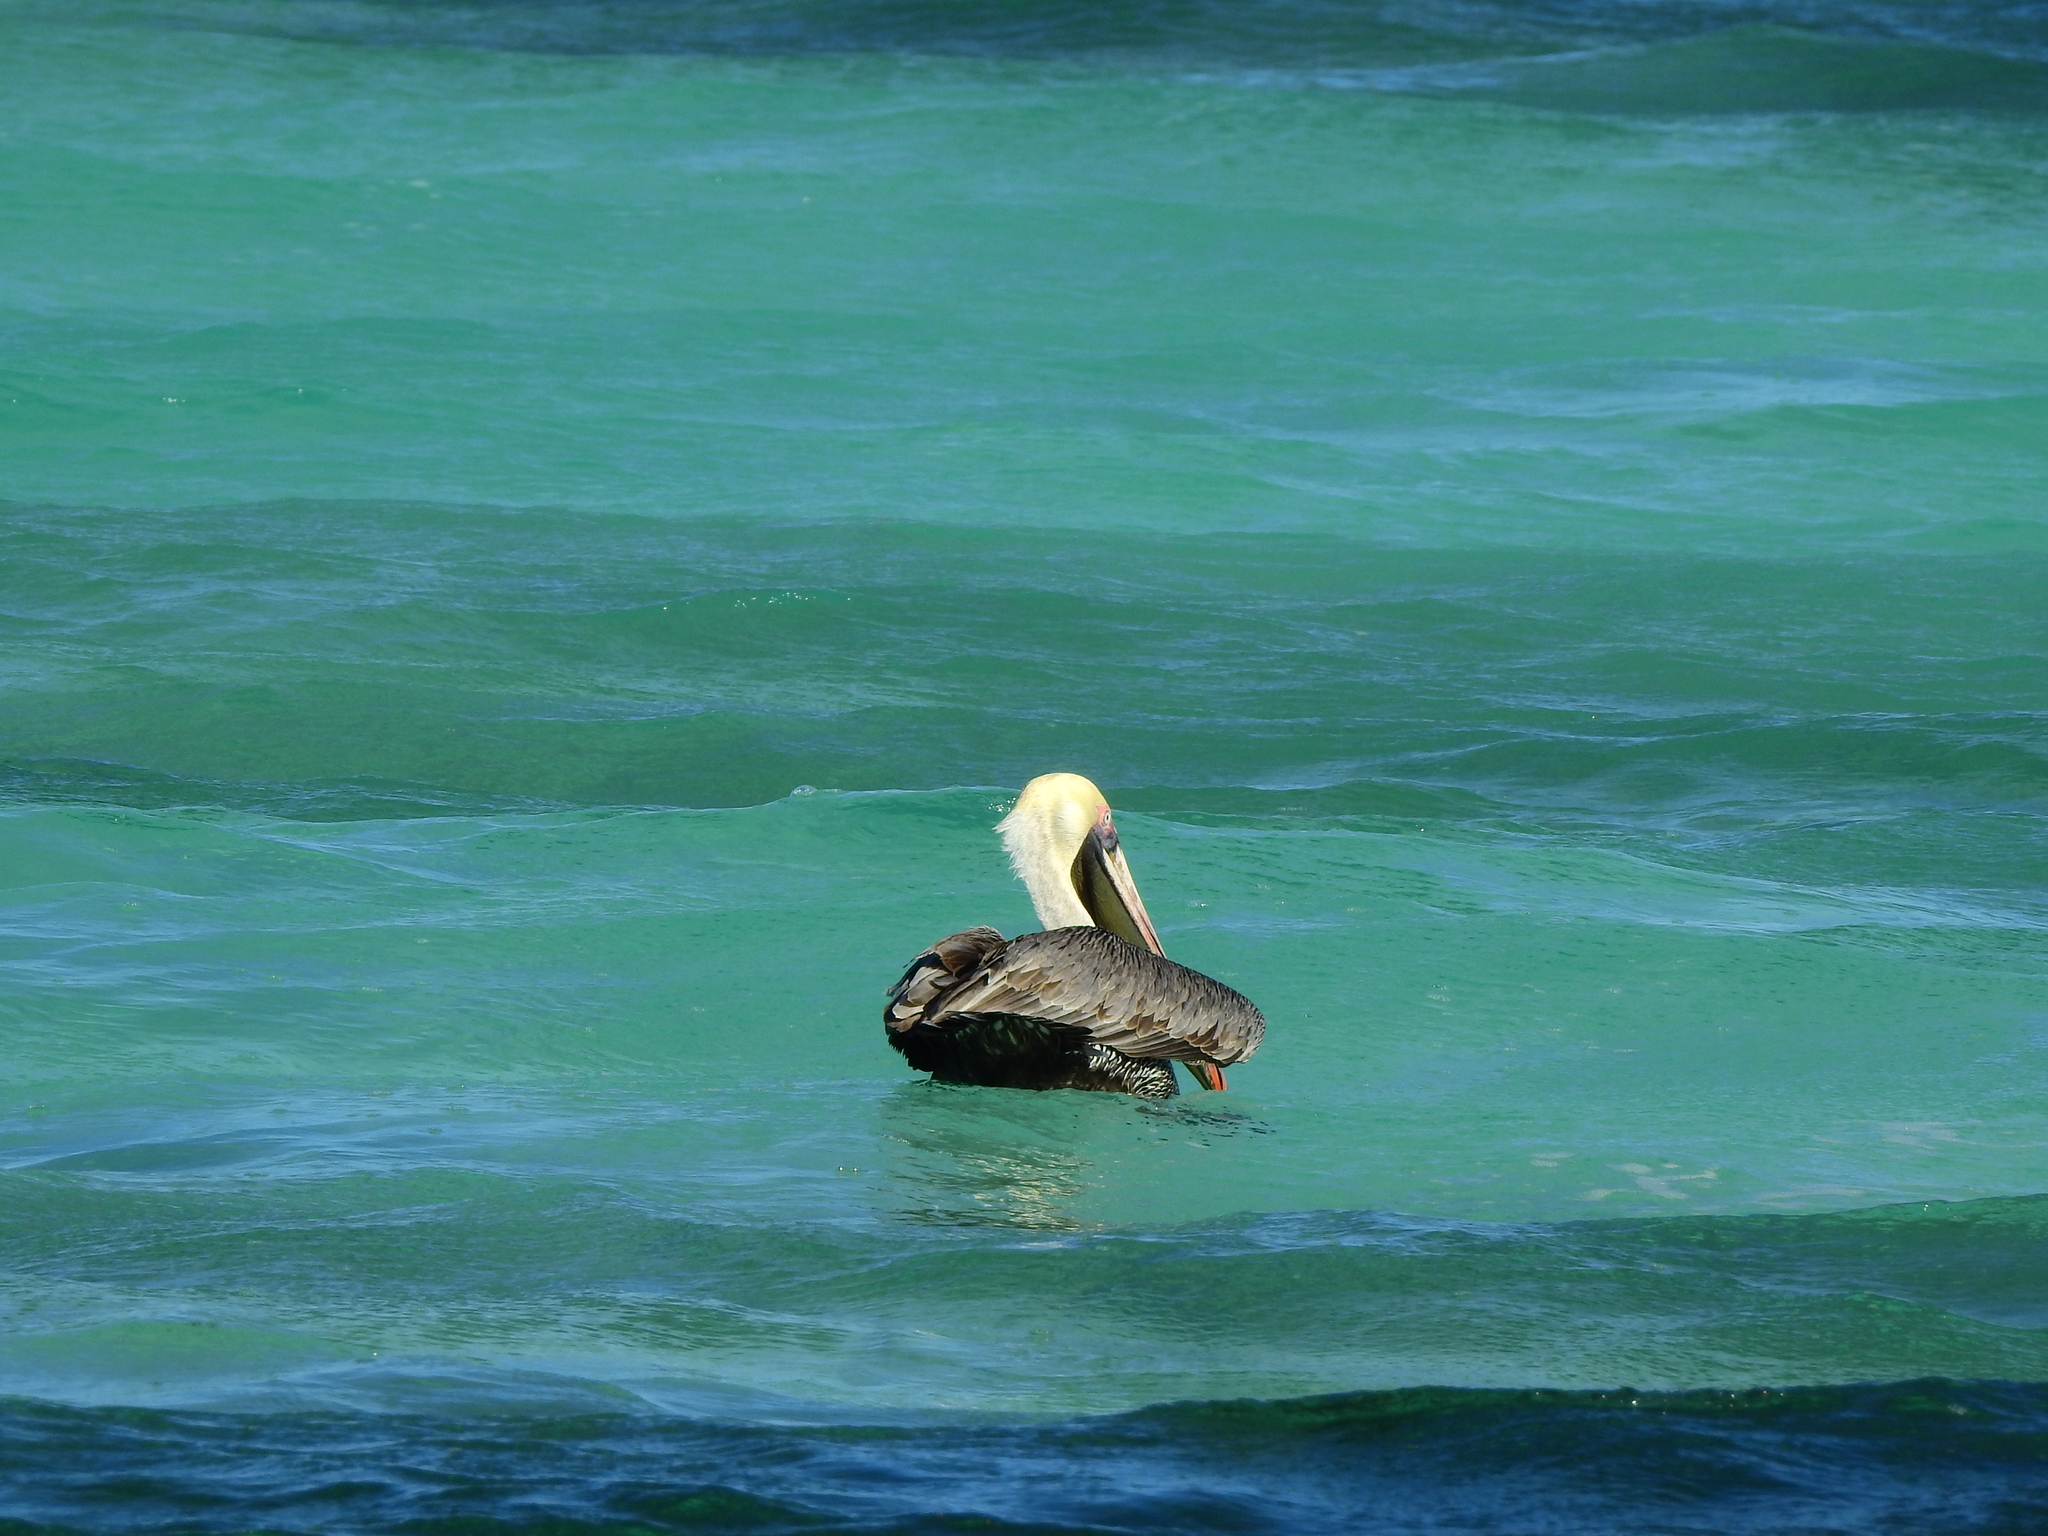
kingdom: Animalia
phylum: Chordata
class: Aves
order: Pelecaniformes
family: Pelecanidae
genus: Pelecanus
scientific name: Pelecanus occidentalis
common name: Brown pelican
